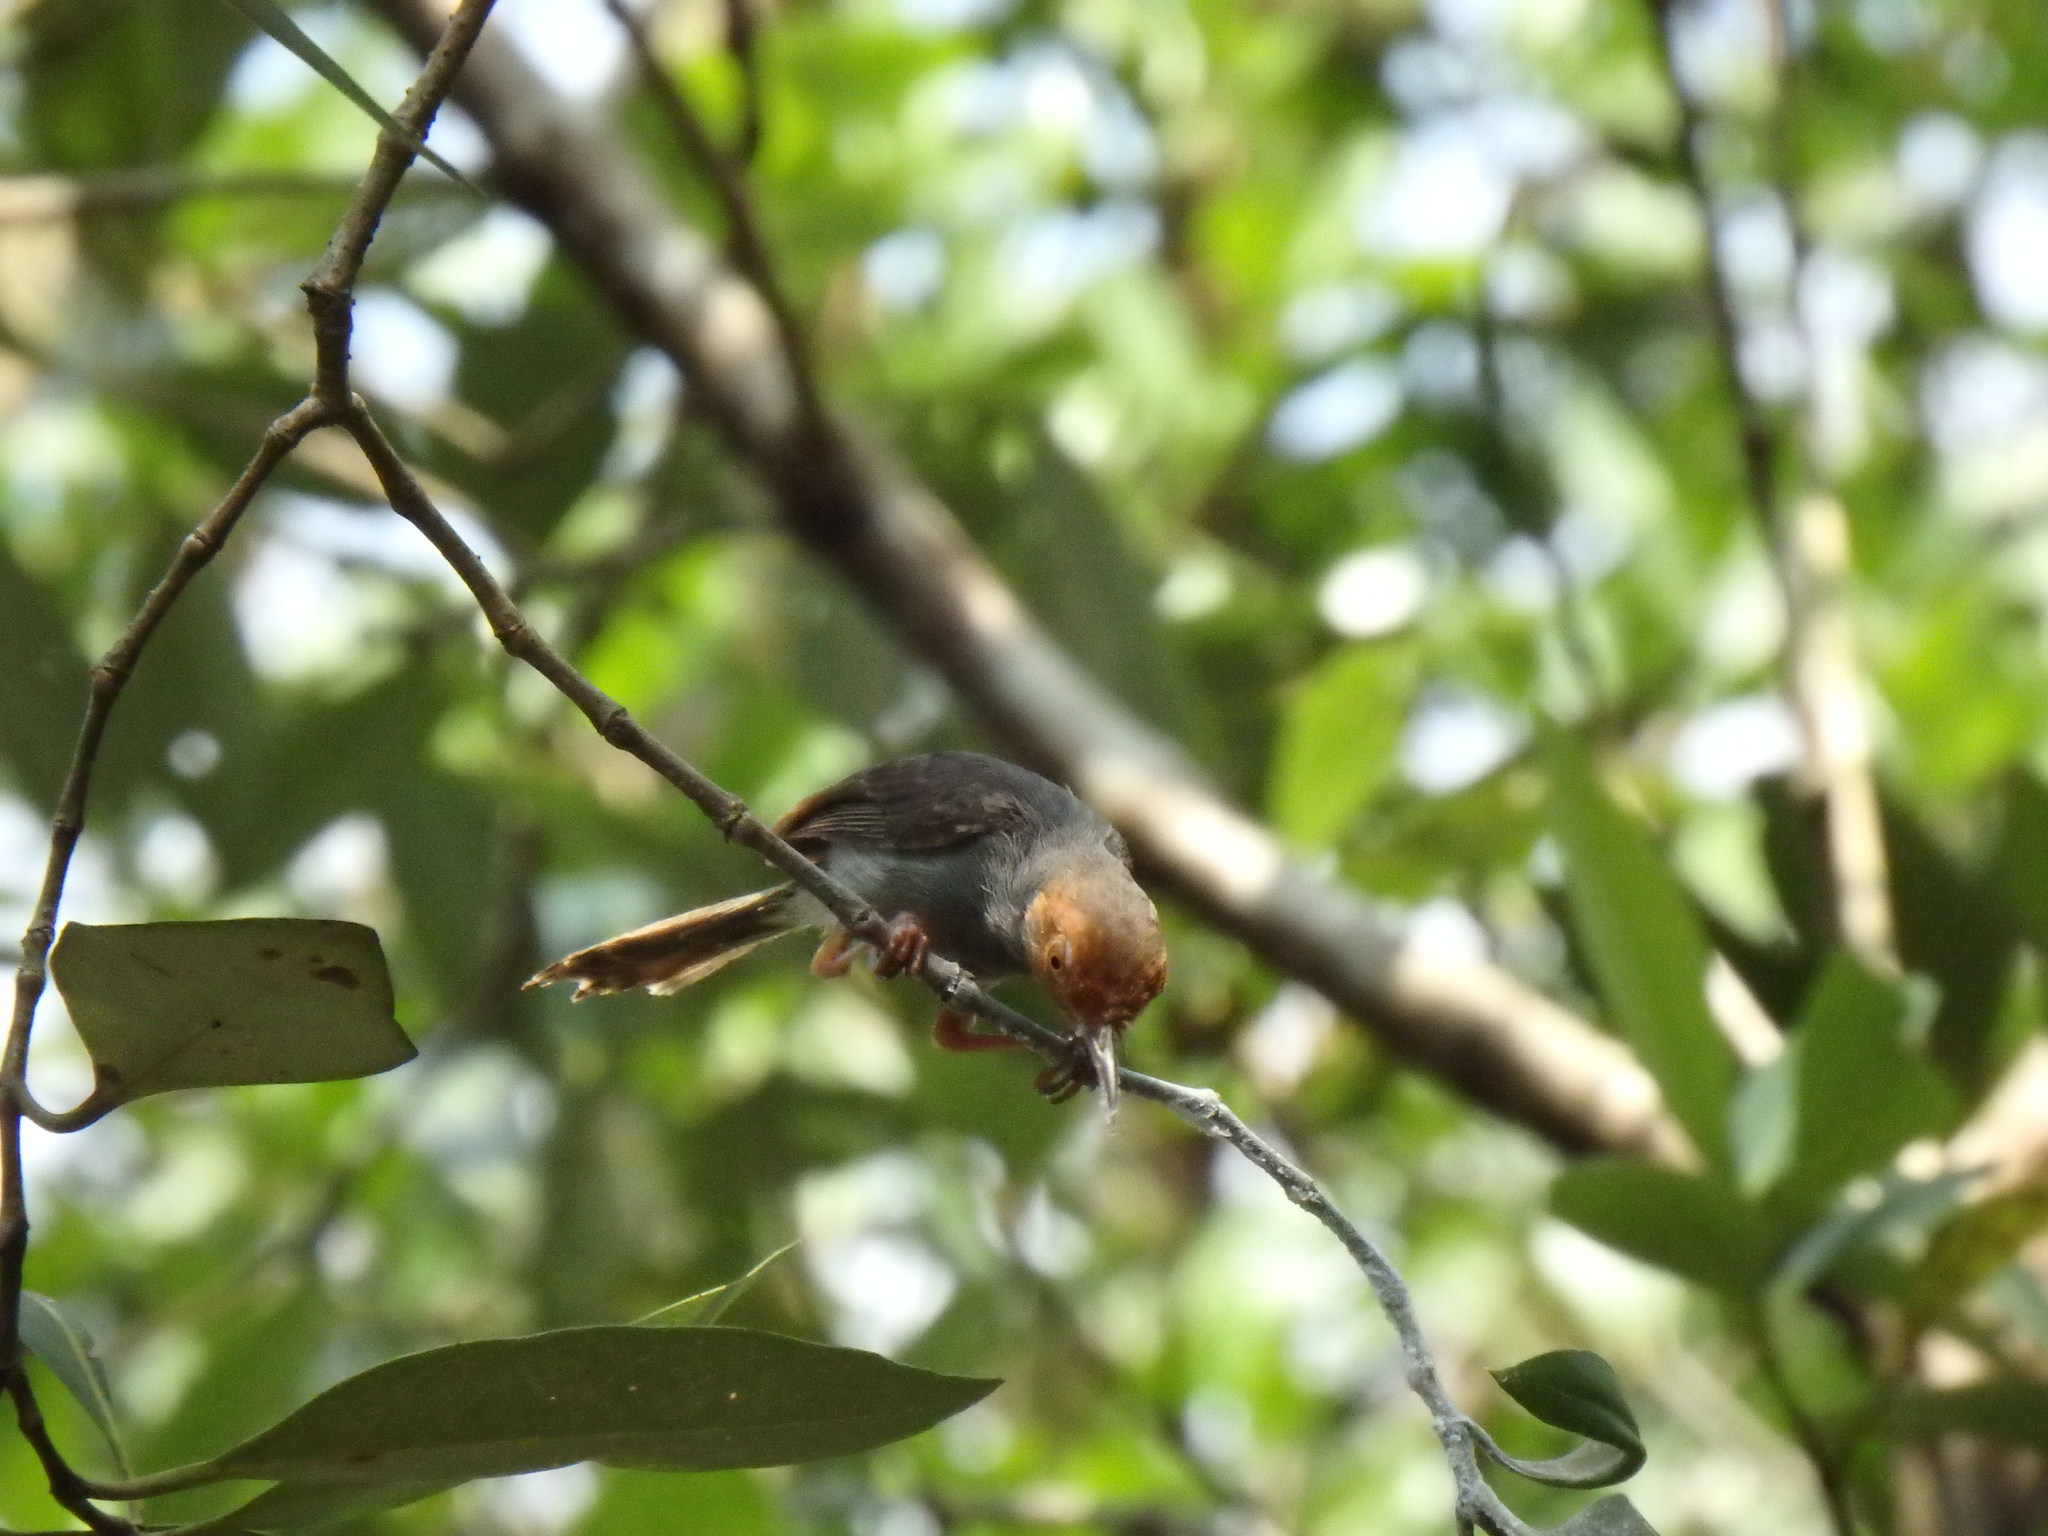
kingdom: Animalia
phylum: Chordata
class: Aves
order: Passeriformes
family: Cisticolidae
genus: Orthotomus
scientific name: Orthotomus ruficeps
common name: Ashy tailorbird
